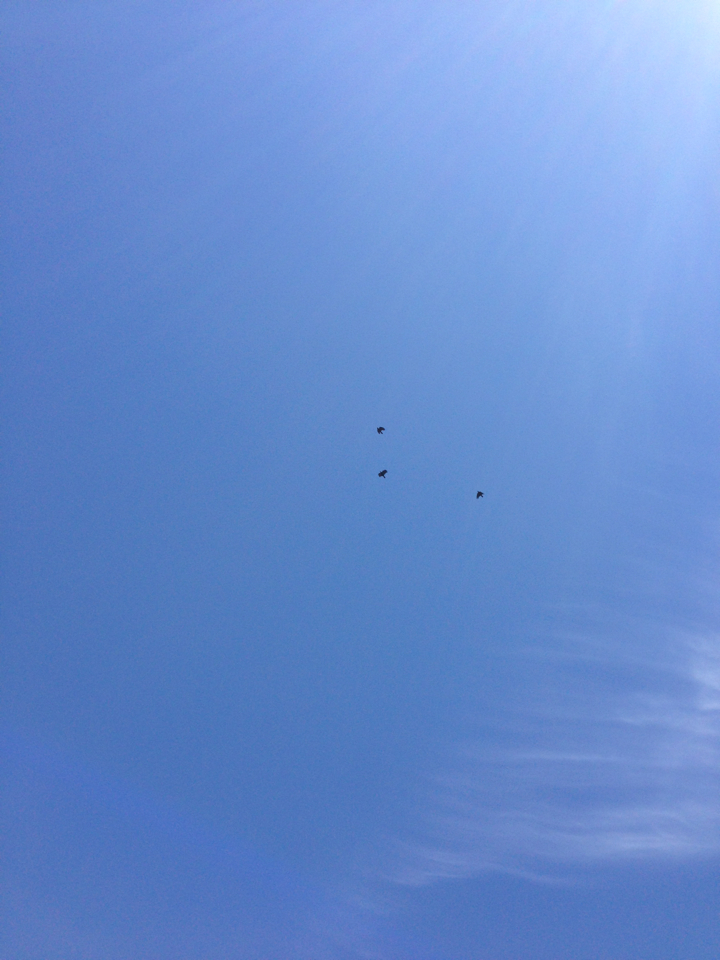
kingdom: Animalia
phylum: Chordata
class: Aves
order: Passeriformes
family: Corvidae
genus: Corvus
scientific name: Corvus brachyrhynchos
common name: American crow
